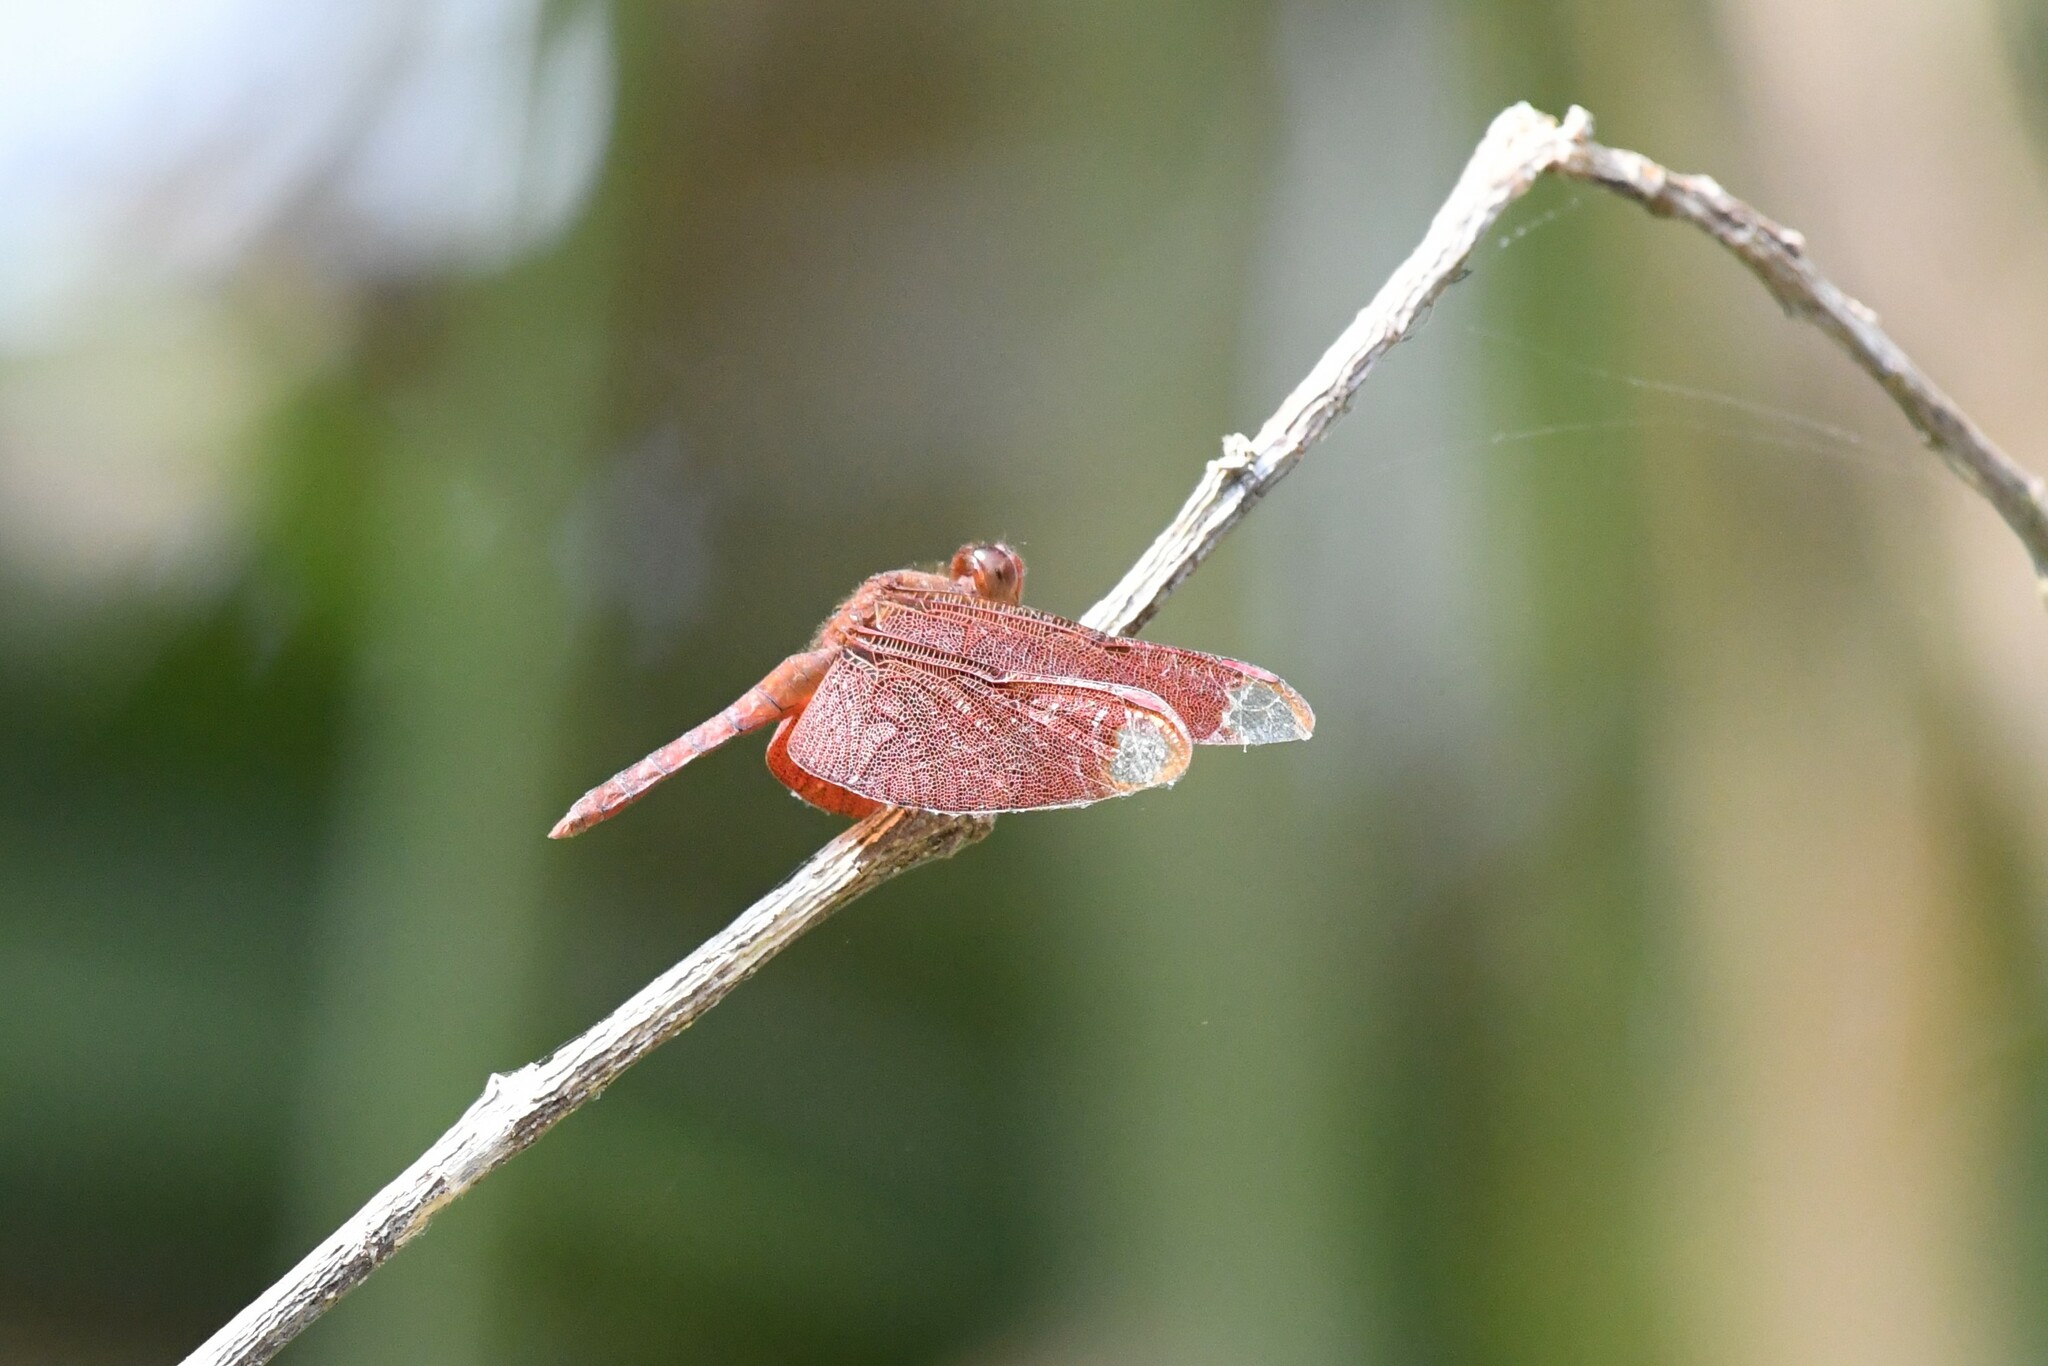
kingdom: Animalia
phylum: Arthropoda
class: Insecta
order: Odonata
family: Libellulidae
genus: Neurothemis
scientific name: Neurothemis fulvia
